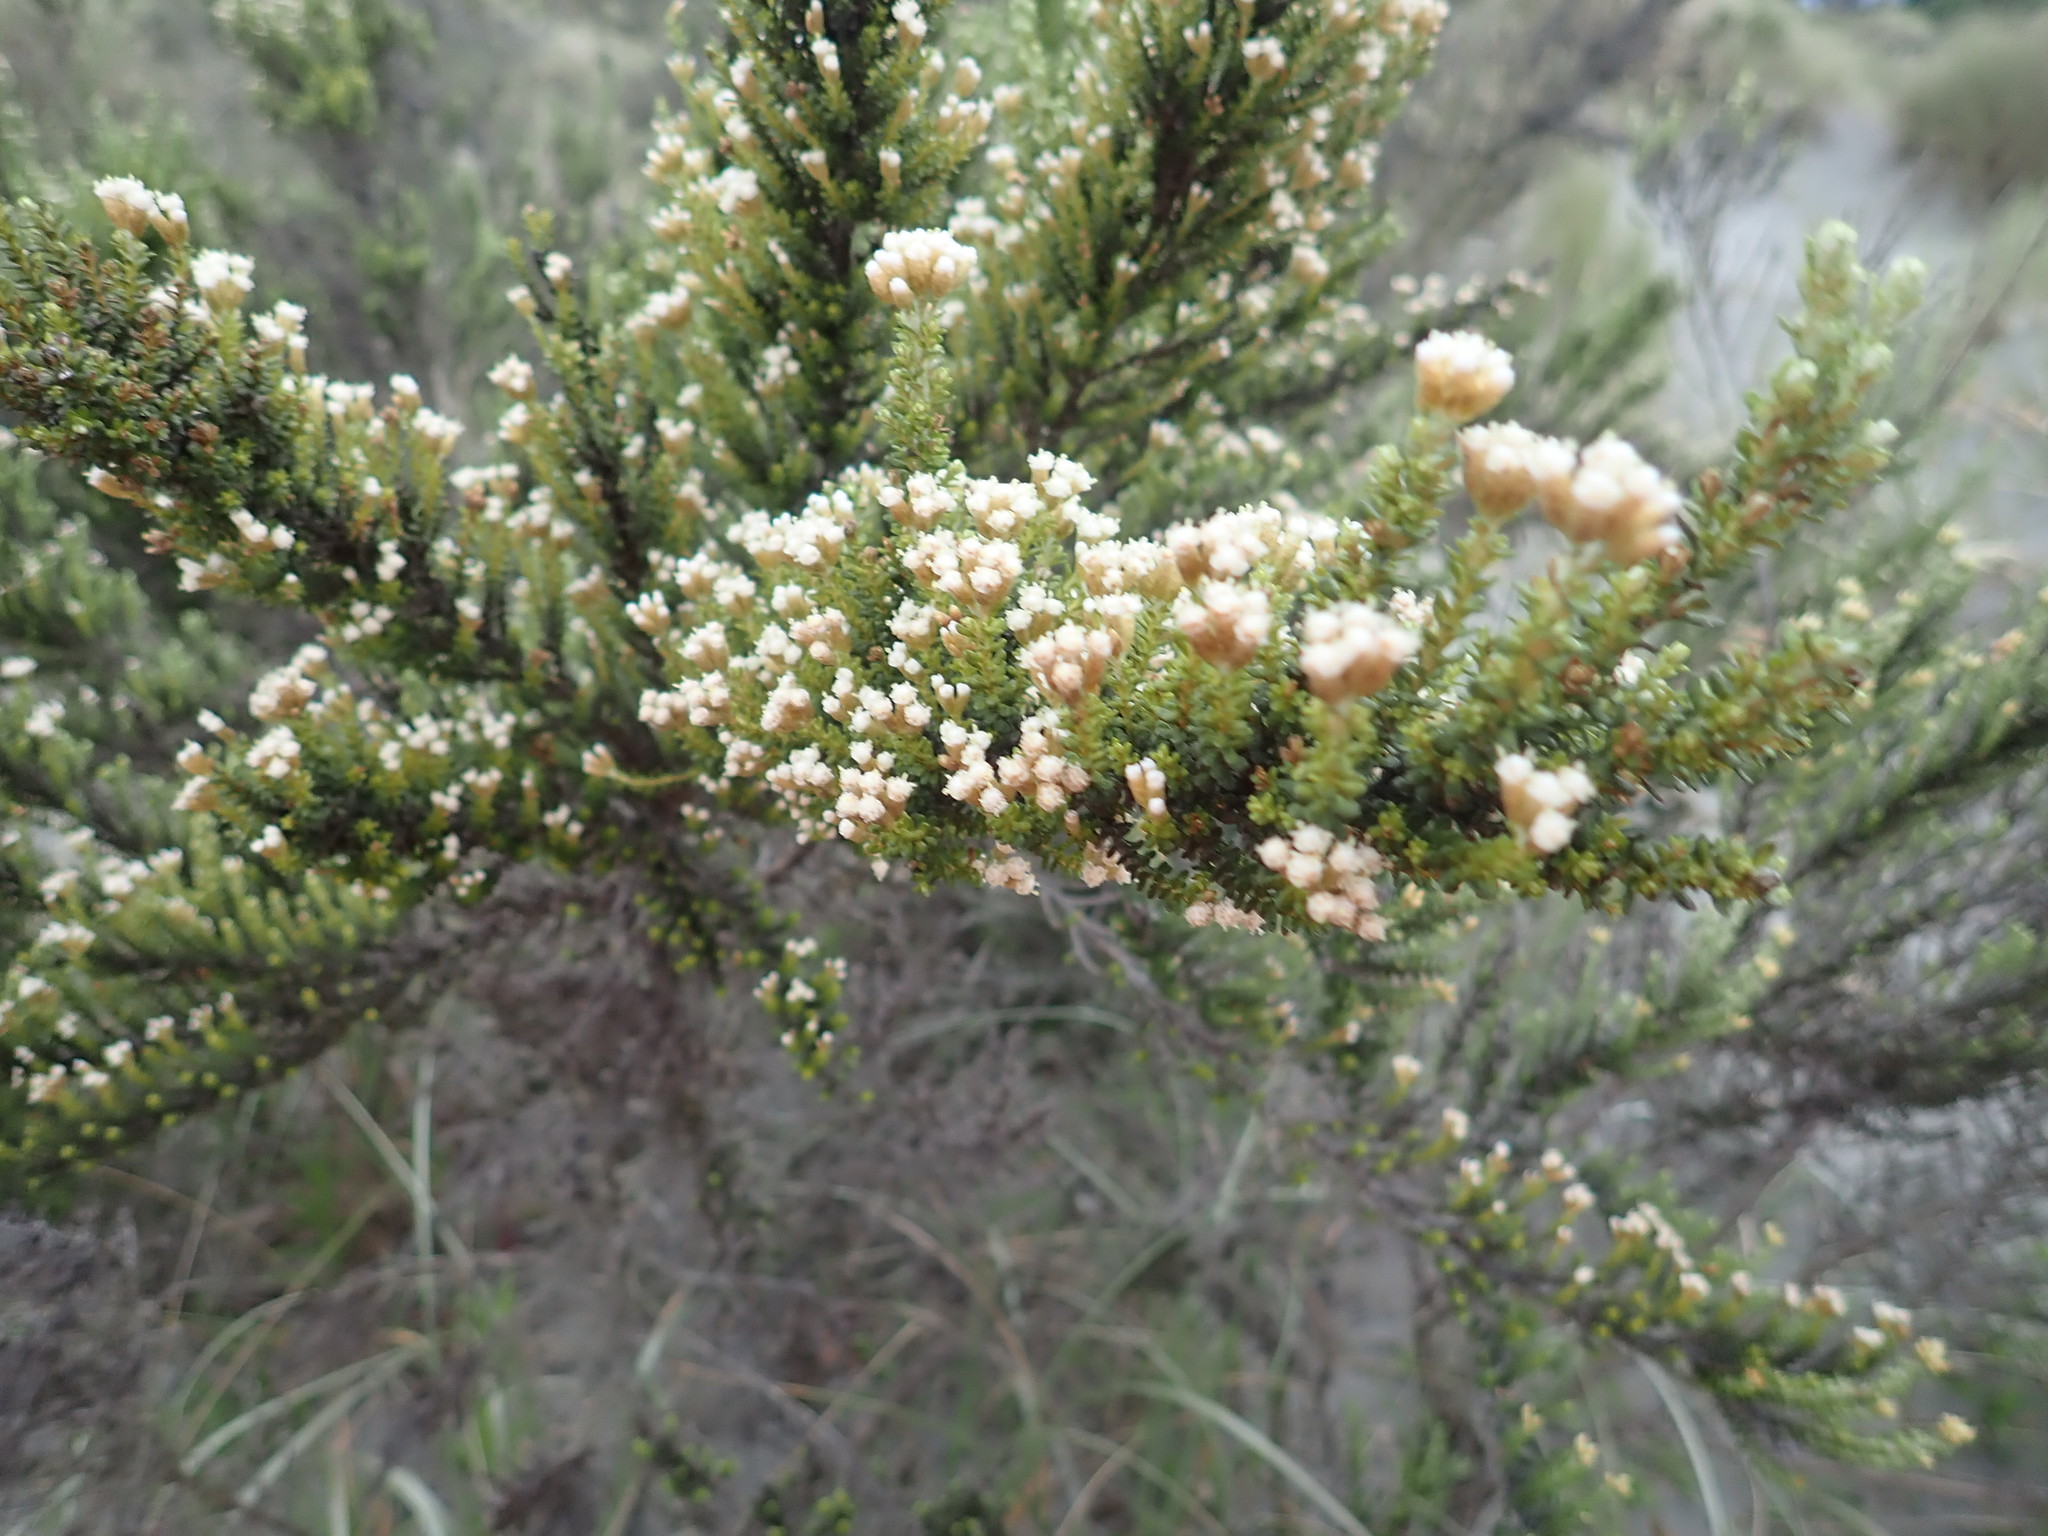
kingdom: Plantae
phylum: Tracheophyta
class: Magnoliopsida
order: Asterales
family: Asteraceae
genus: Ozothamnus
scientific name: Ozothamnus leptophyllus
